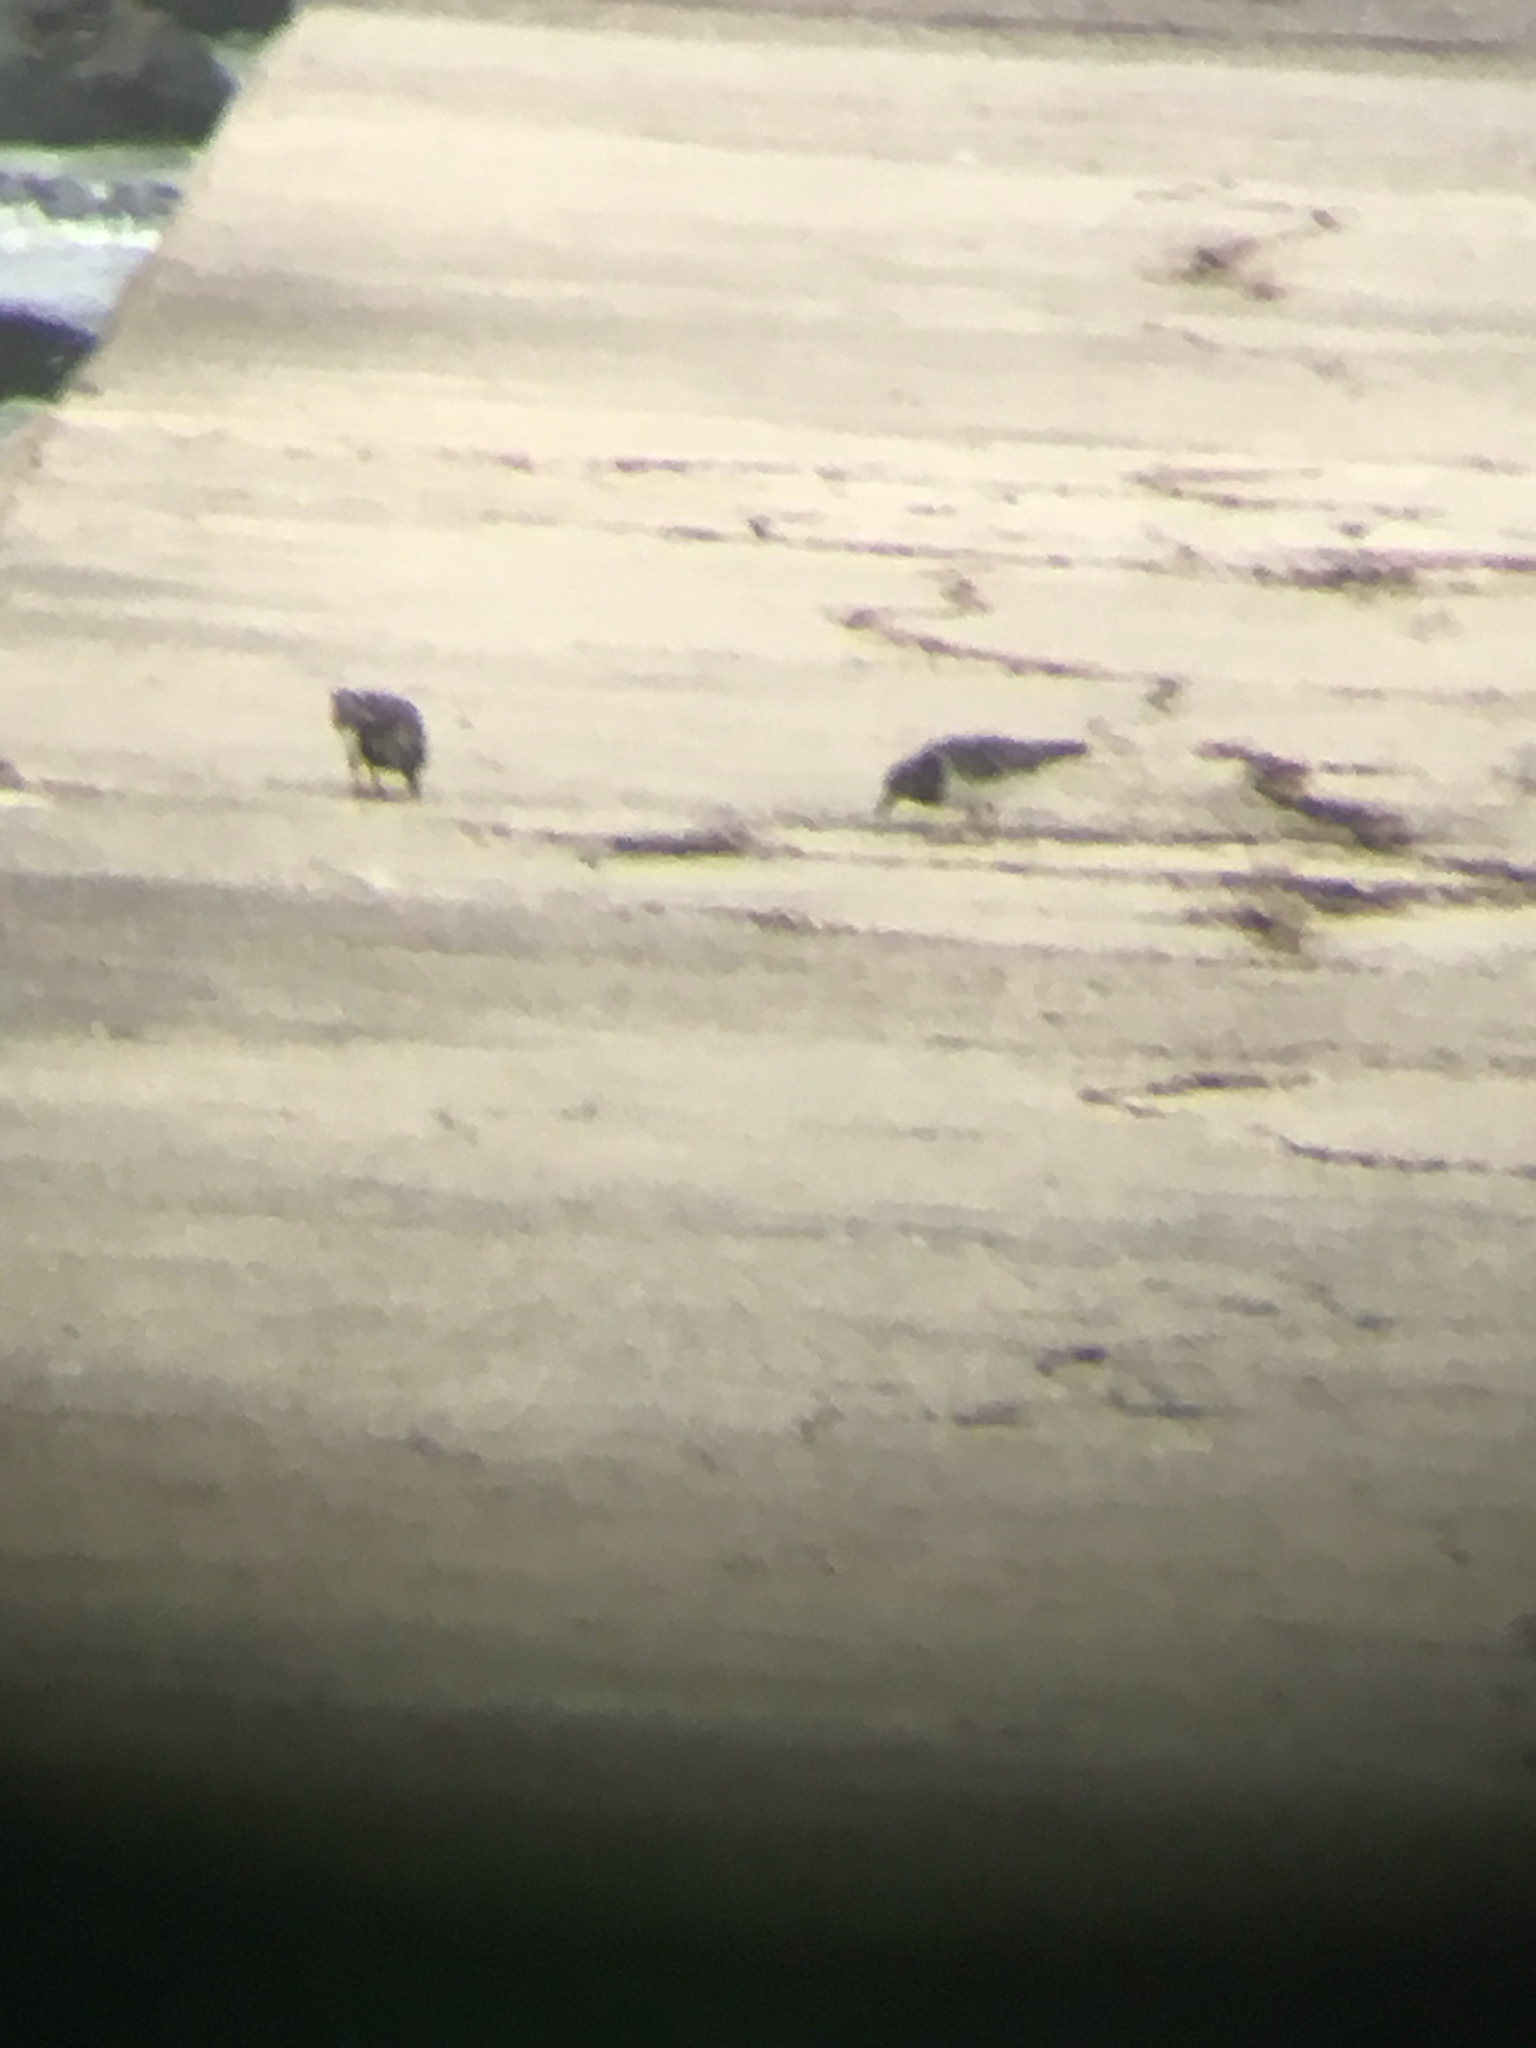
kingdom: Animalia
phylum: Chordata
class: Aves
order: Charadriiformes
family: Scolopacidae
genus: Arenaria
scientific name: Arenaria interpres
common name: Ruddy turnstone
